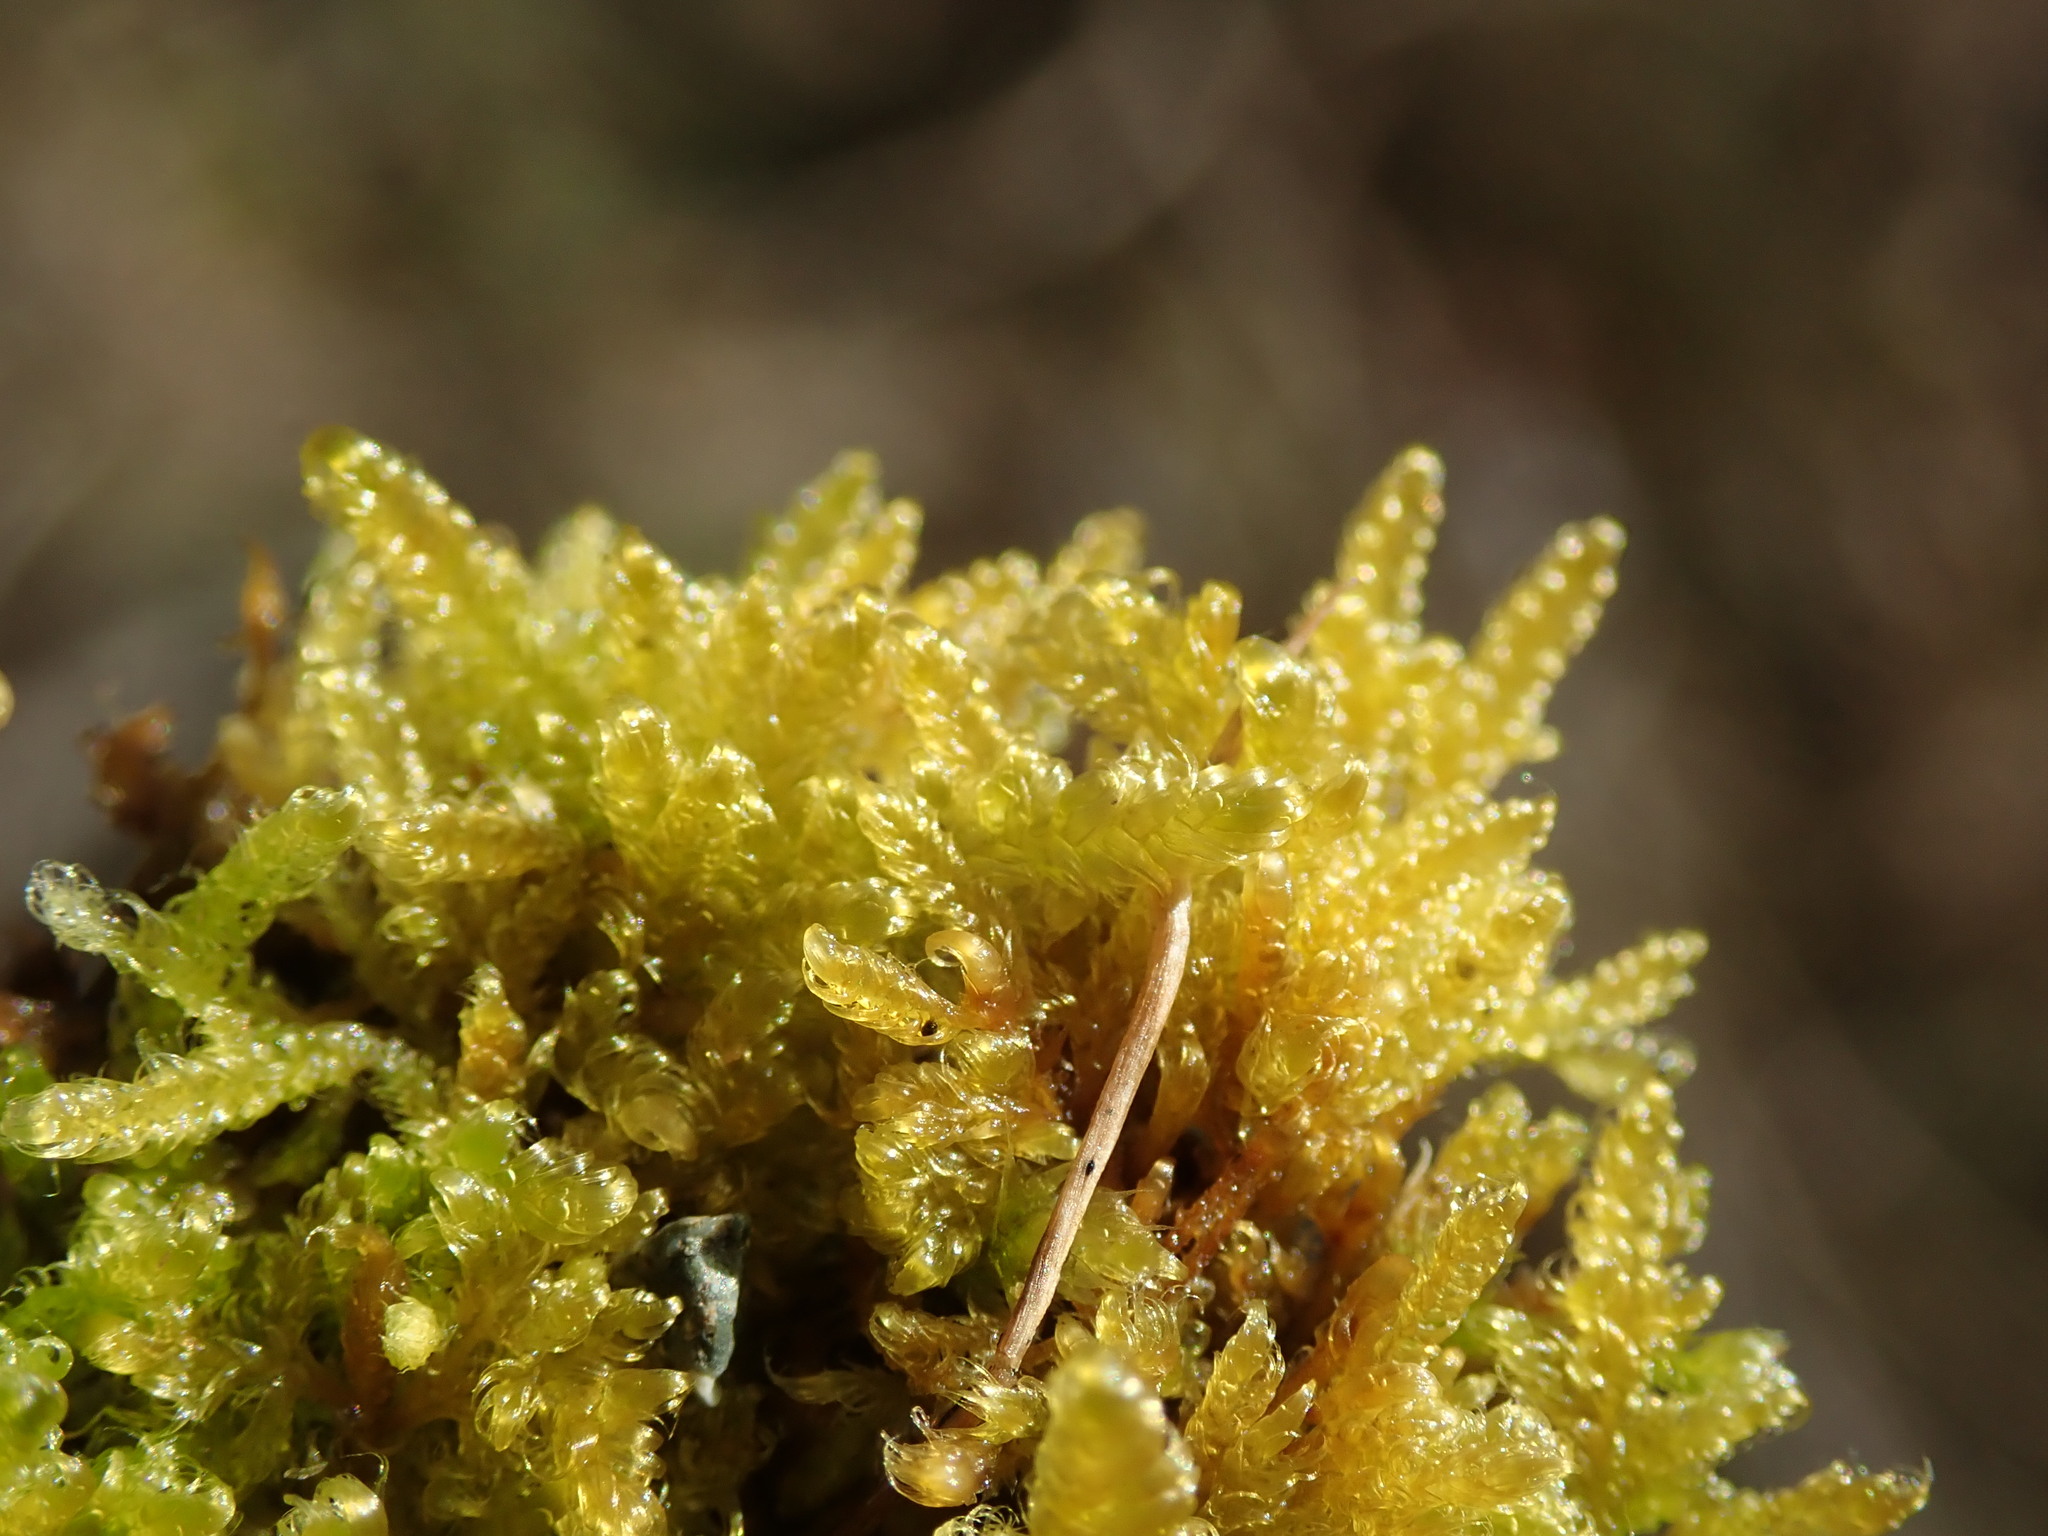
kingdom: Plantae
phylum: Bryophyta
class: Bryopsida
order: Hypnales
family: Stereodontaceae
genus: Stereodon
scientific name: Stereodon subimponens
